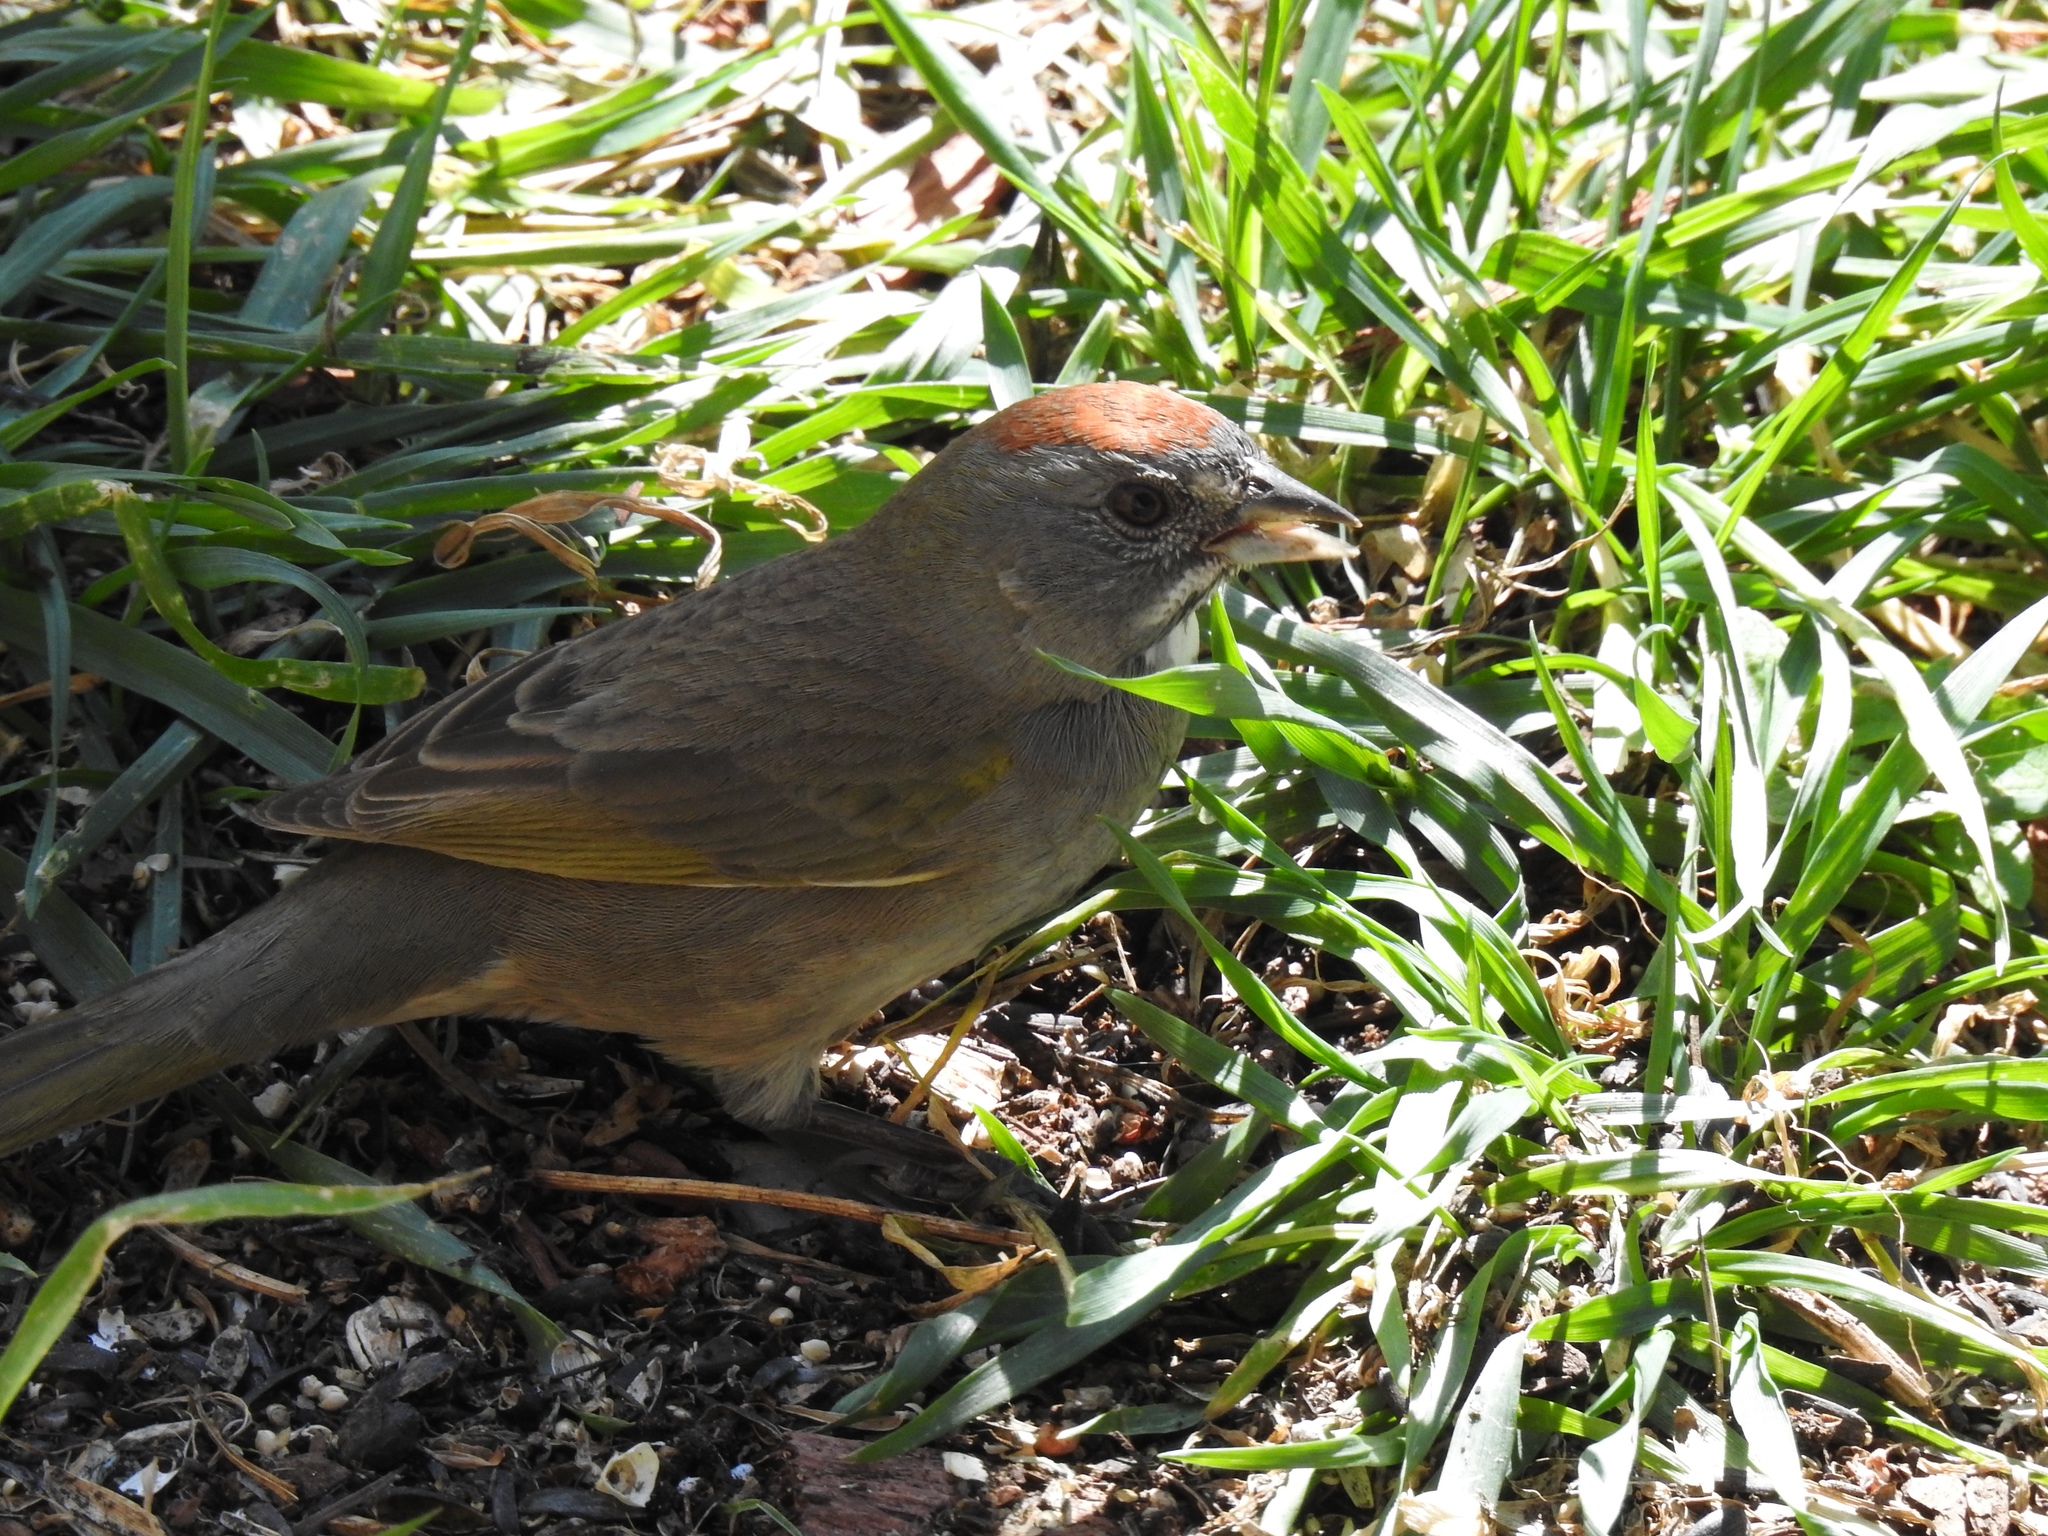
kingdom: Animalia
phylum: Chordata
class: Aves
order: Passeriformes
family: Passerellidae
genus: Pipilo
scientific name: Pipilo chlorurus
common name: Green-tailed towhee
